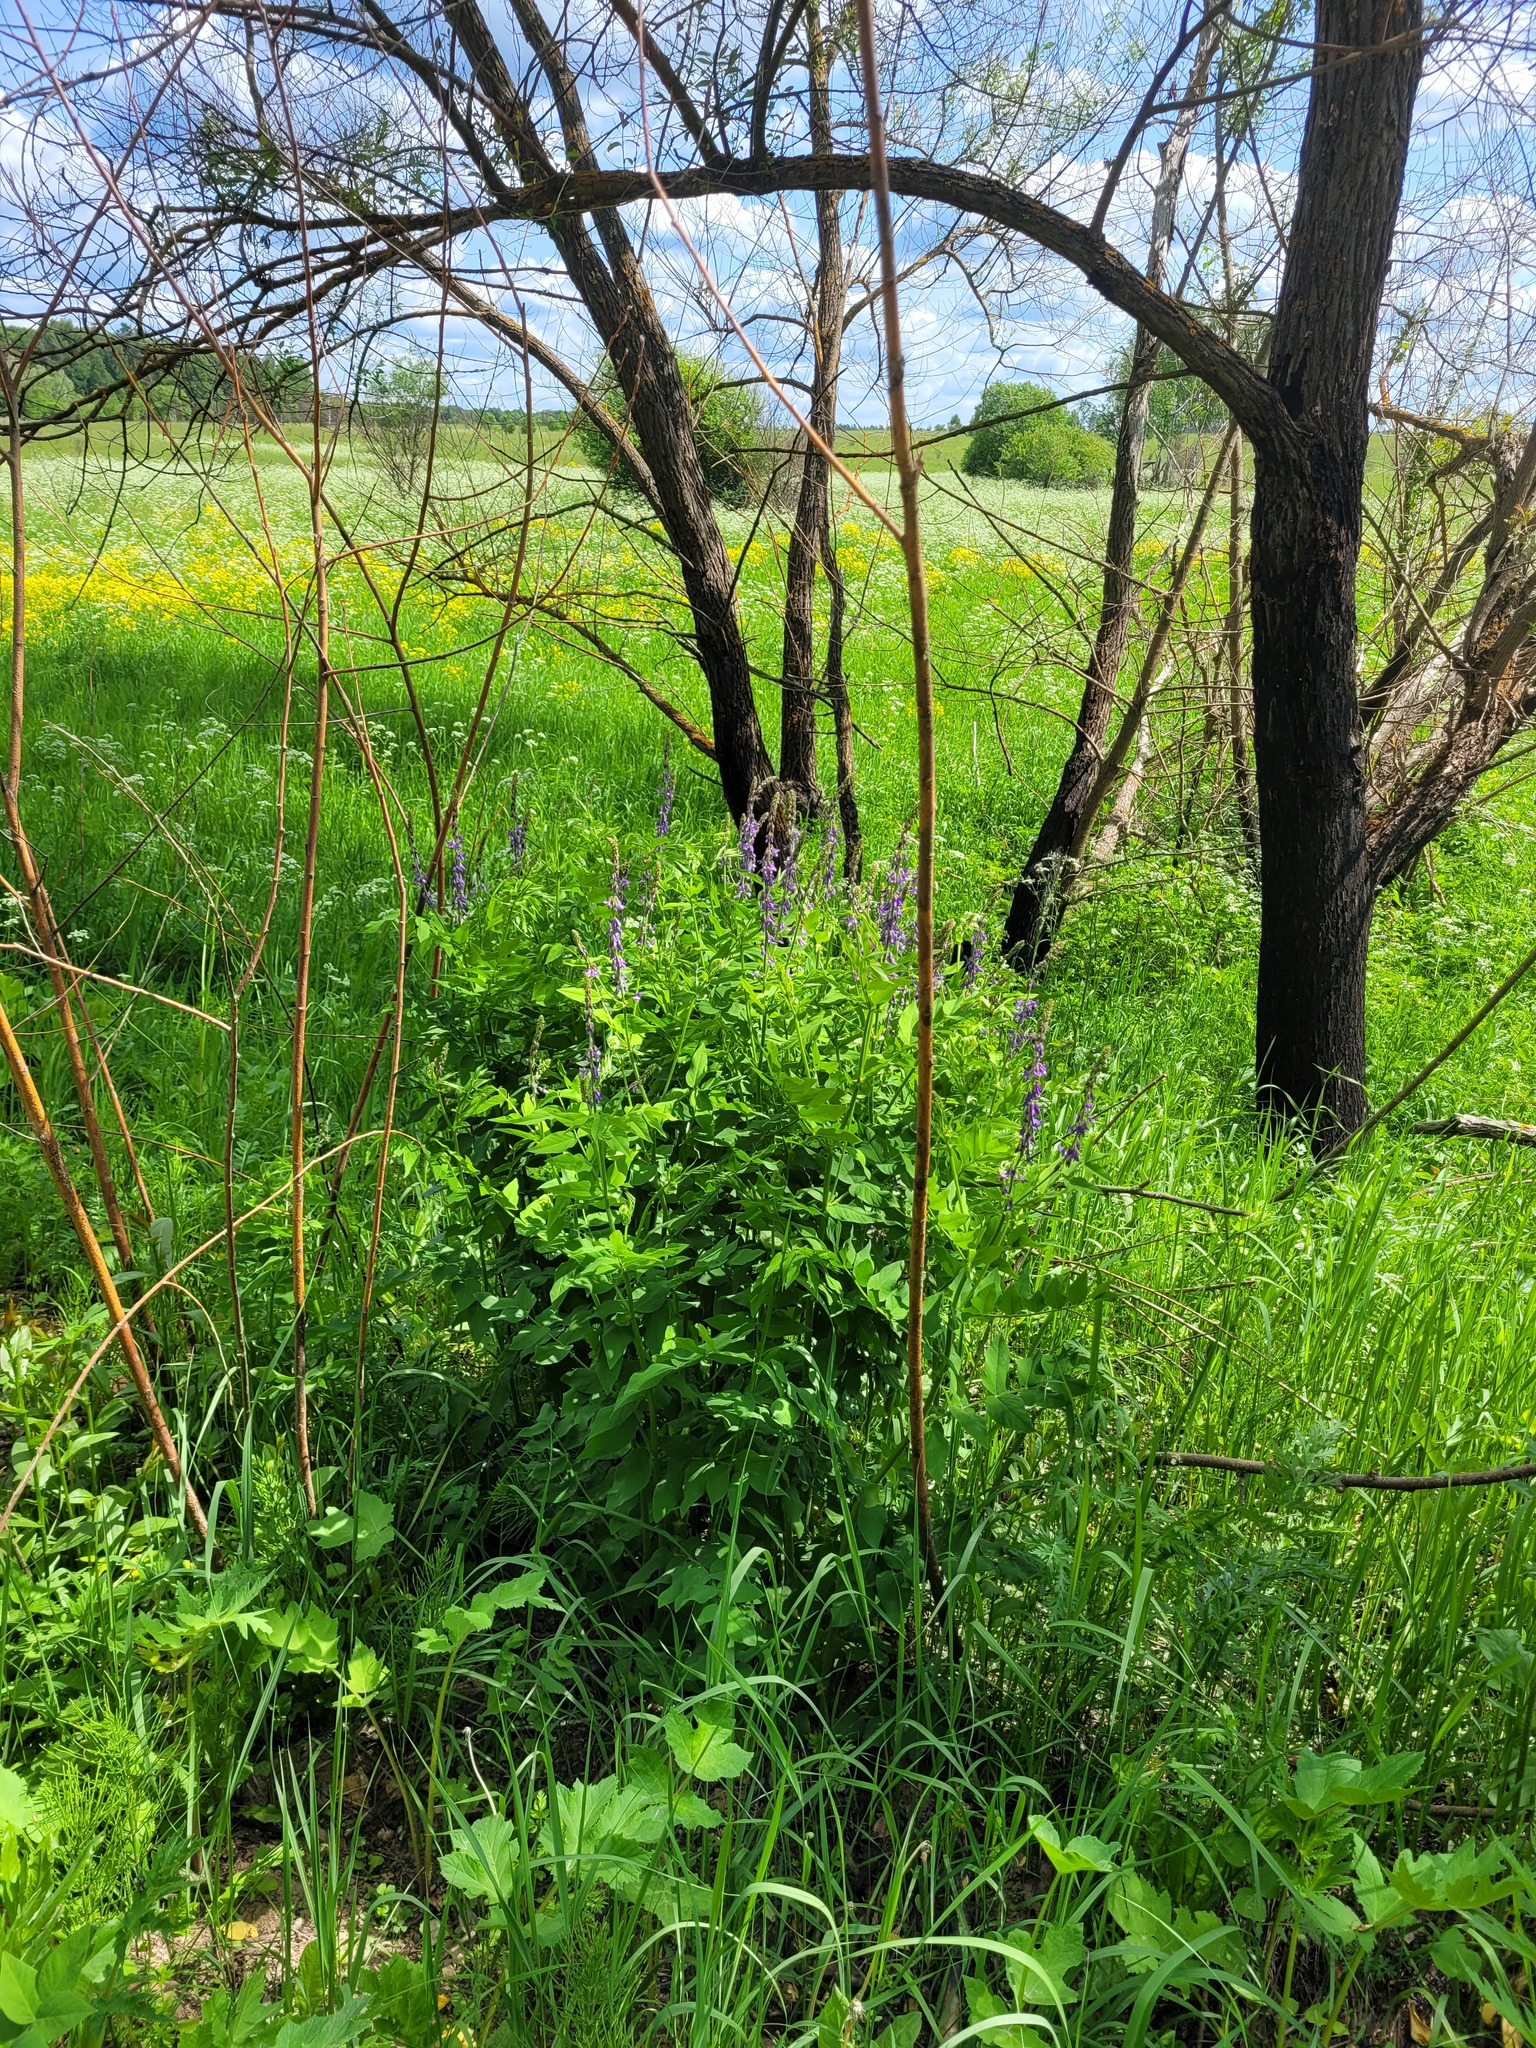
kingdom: Plantae
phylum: Tracheophyta
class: Magnoliopsida
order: Fabales
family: Fabaceae
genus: Galega
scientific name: Galega orientalis
